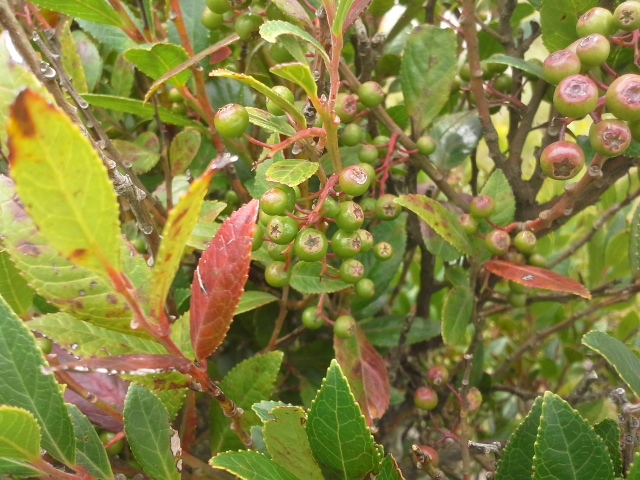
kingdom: Plantae
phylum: Tracheophyta
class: Magnoliopsida
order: Ericales
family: Ericaceae
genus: Vaccinium
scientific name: Vaccinium exul
